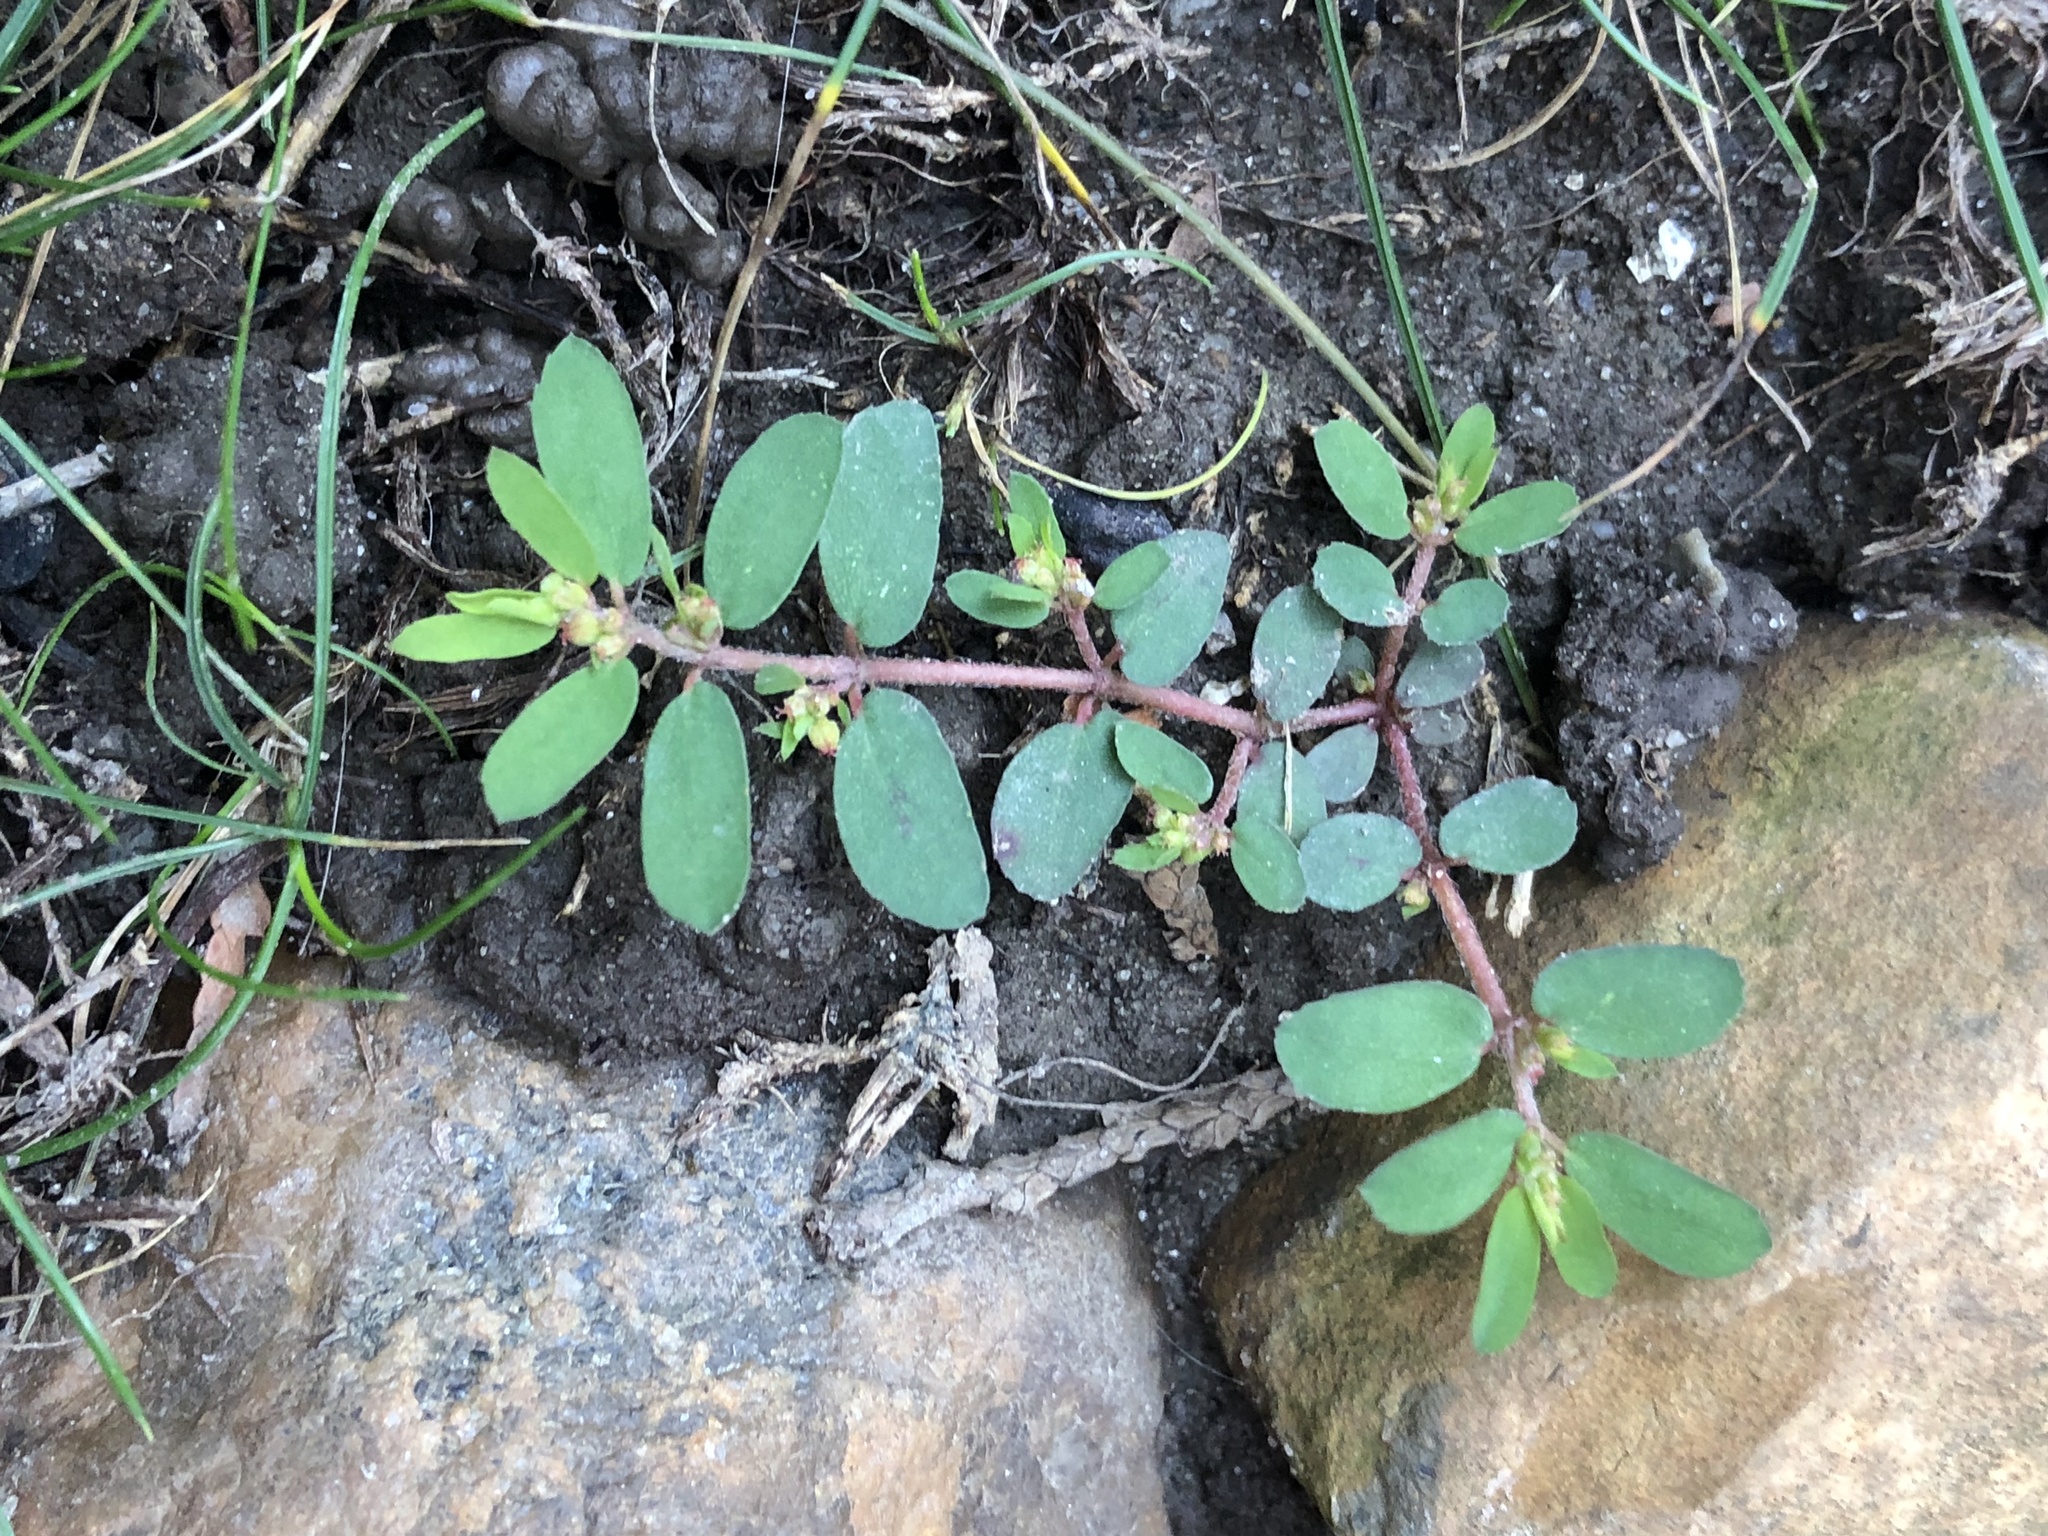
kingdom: Plantae
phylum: Tracheophyta
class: Magnoliopsida
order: Malpighiales
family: Euphorbiaceae
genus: Euphorbia
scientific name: Euphorbia maculata
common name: Spotted spurge
